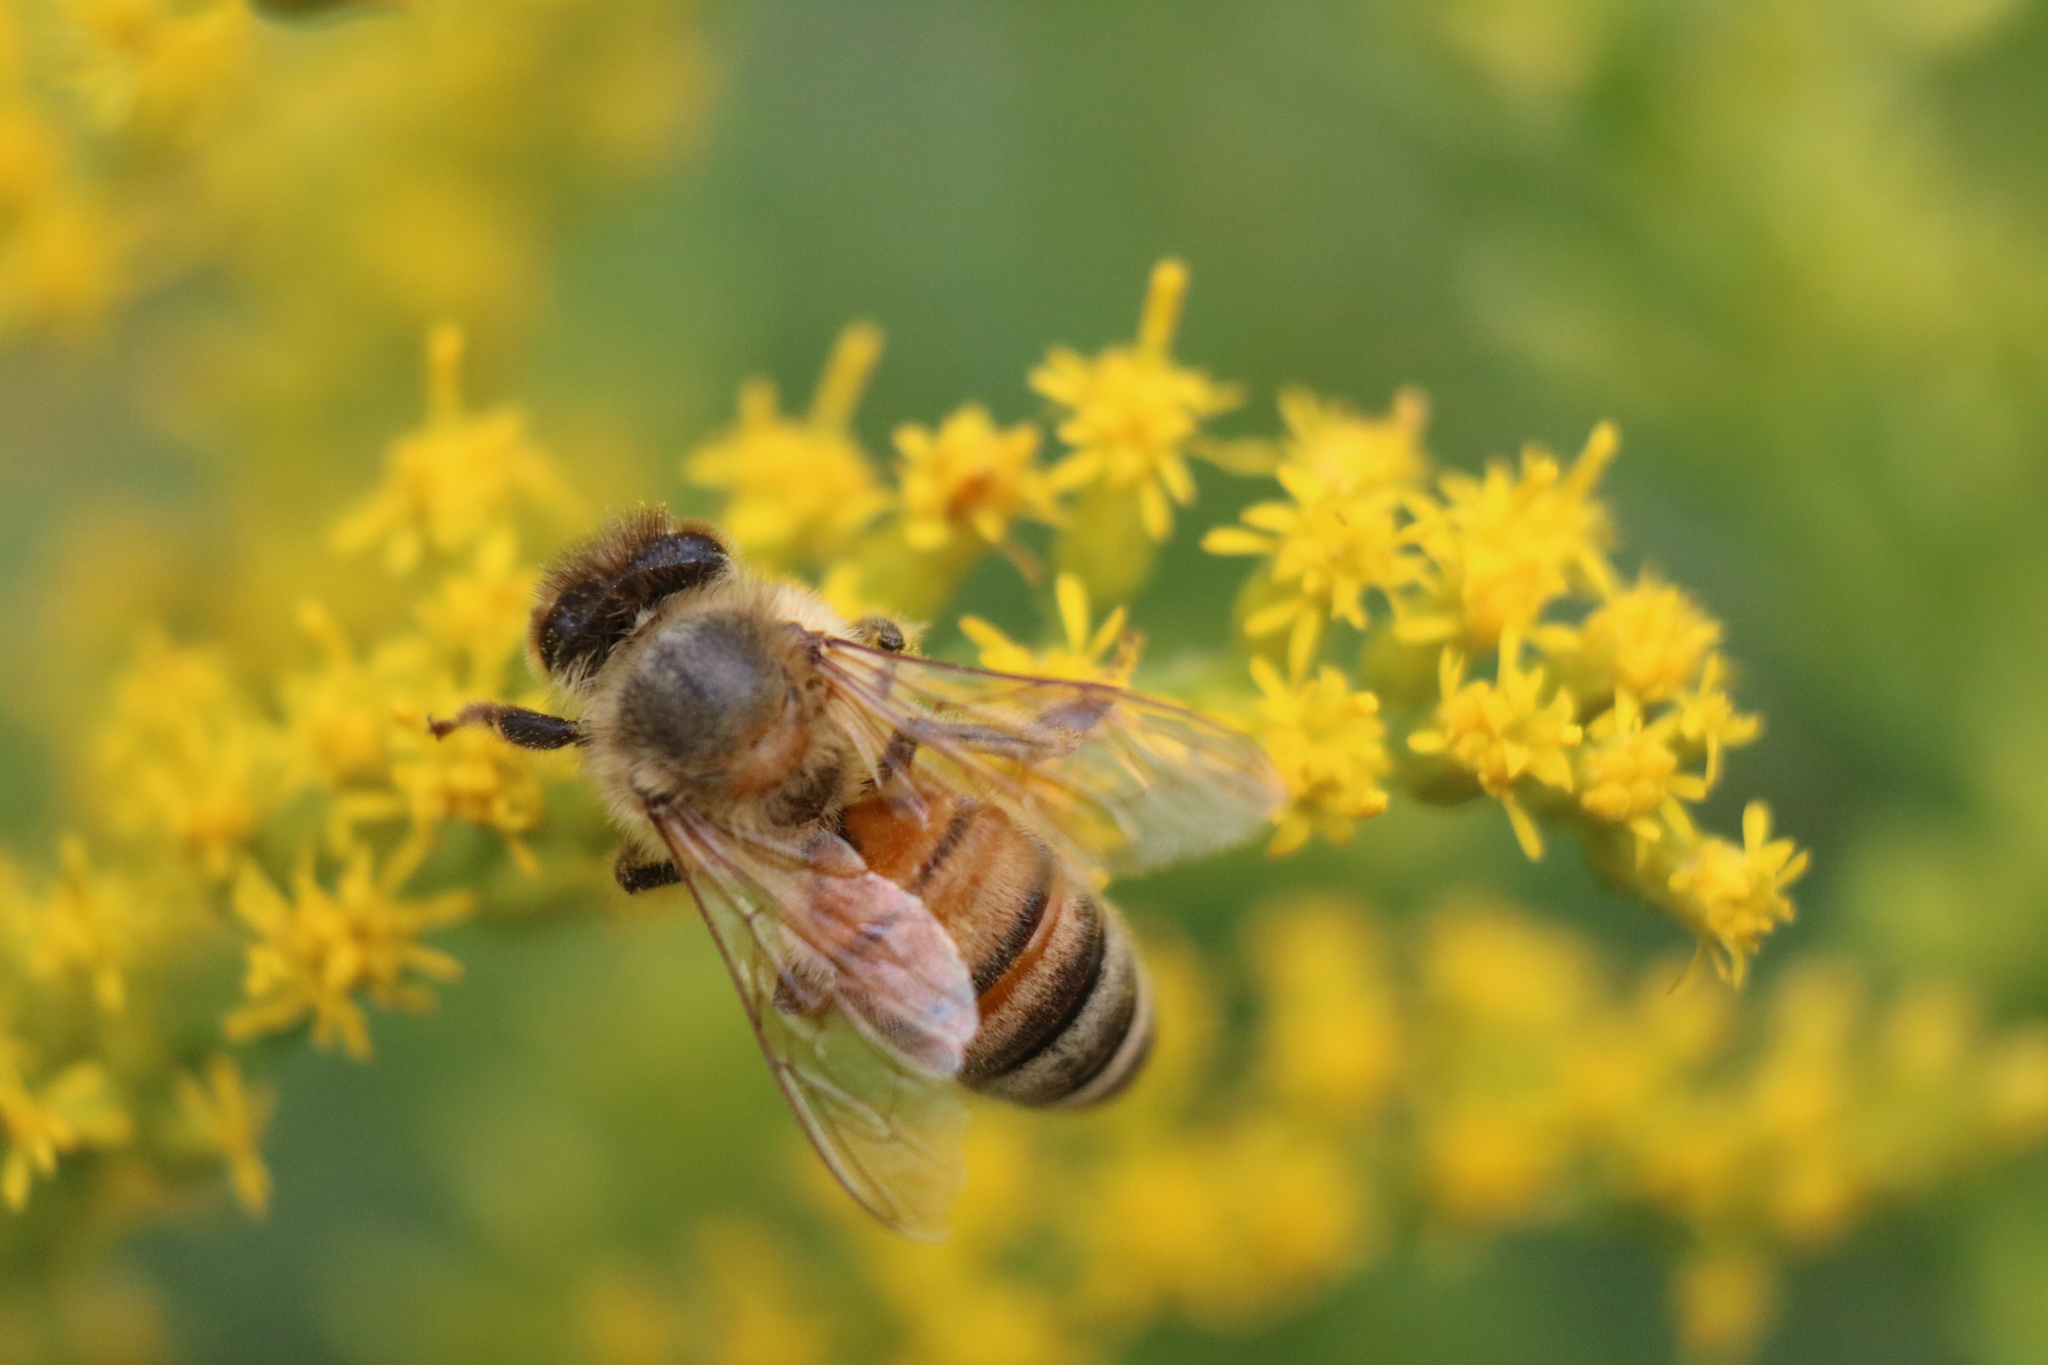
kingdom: Animalia
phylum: Arthropoda
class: Insecta
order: Hymenoptera
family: Apidae
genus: Apis
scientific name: Apis mellifera
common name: Honey bee
